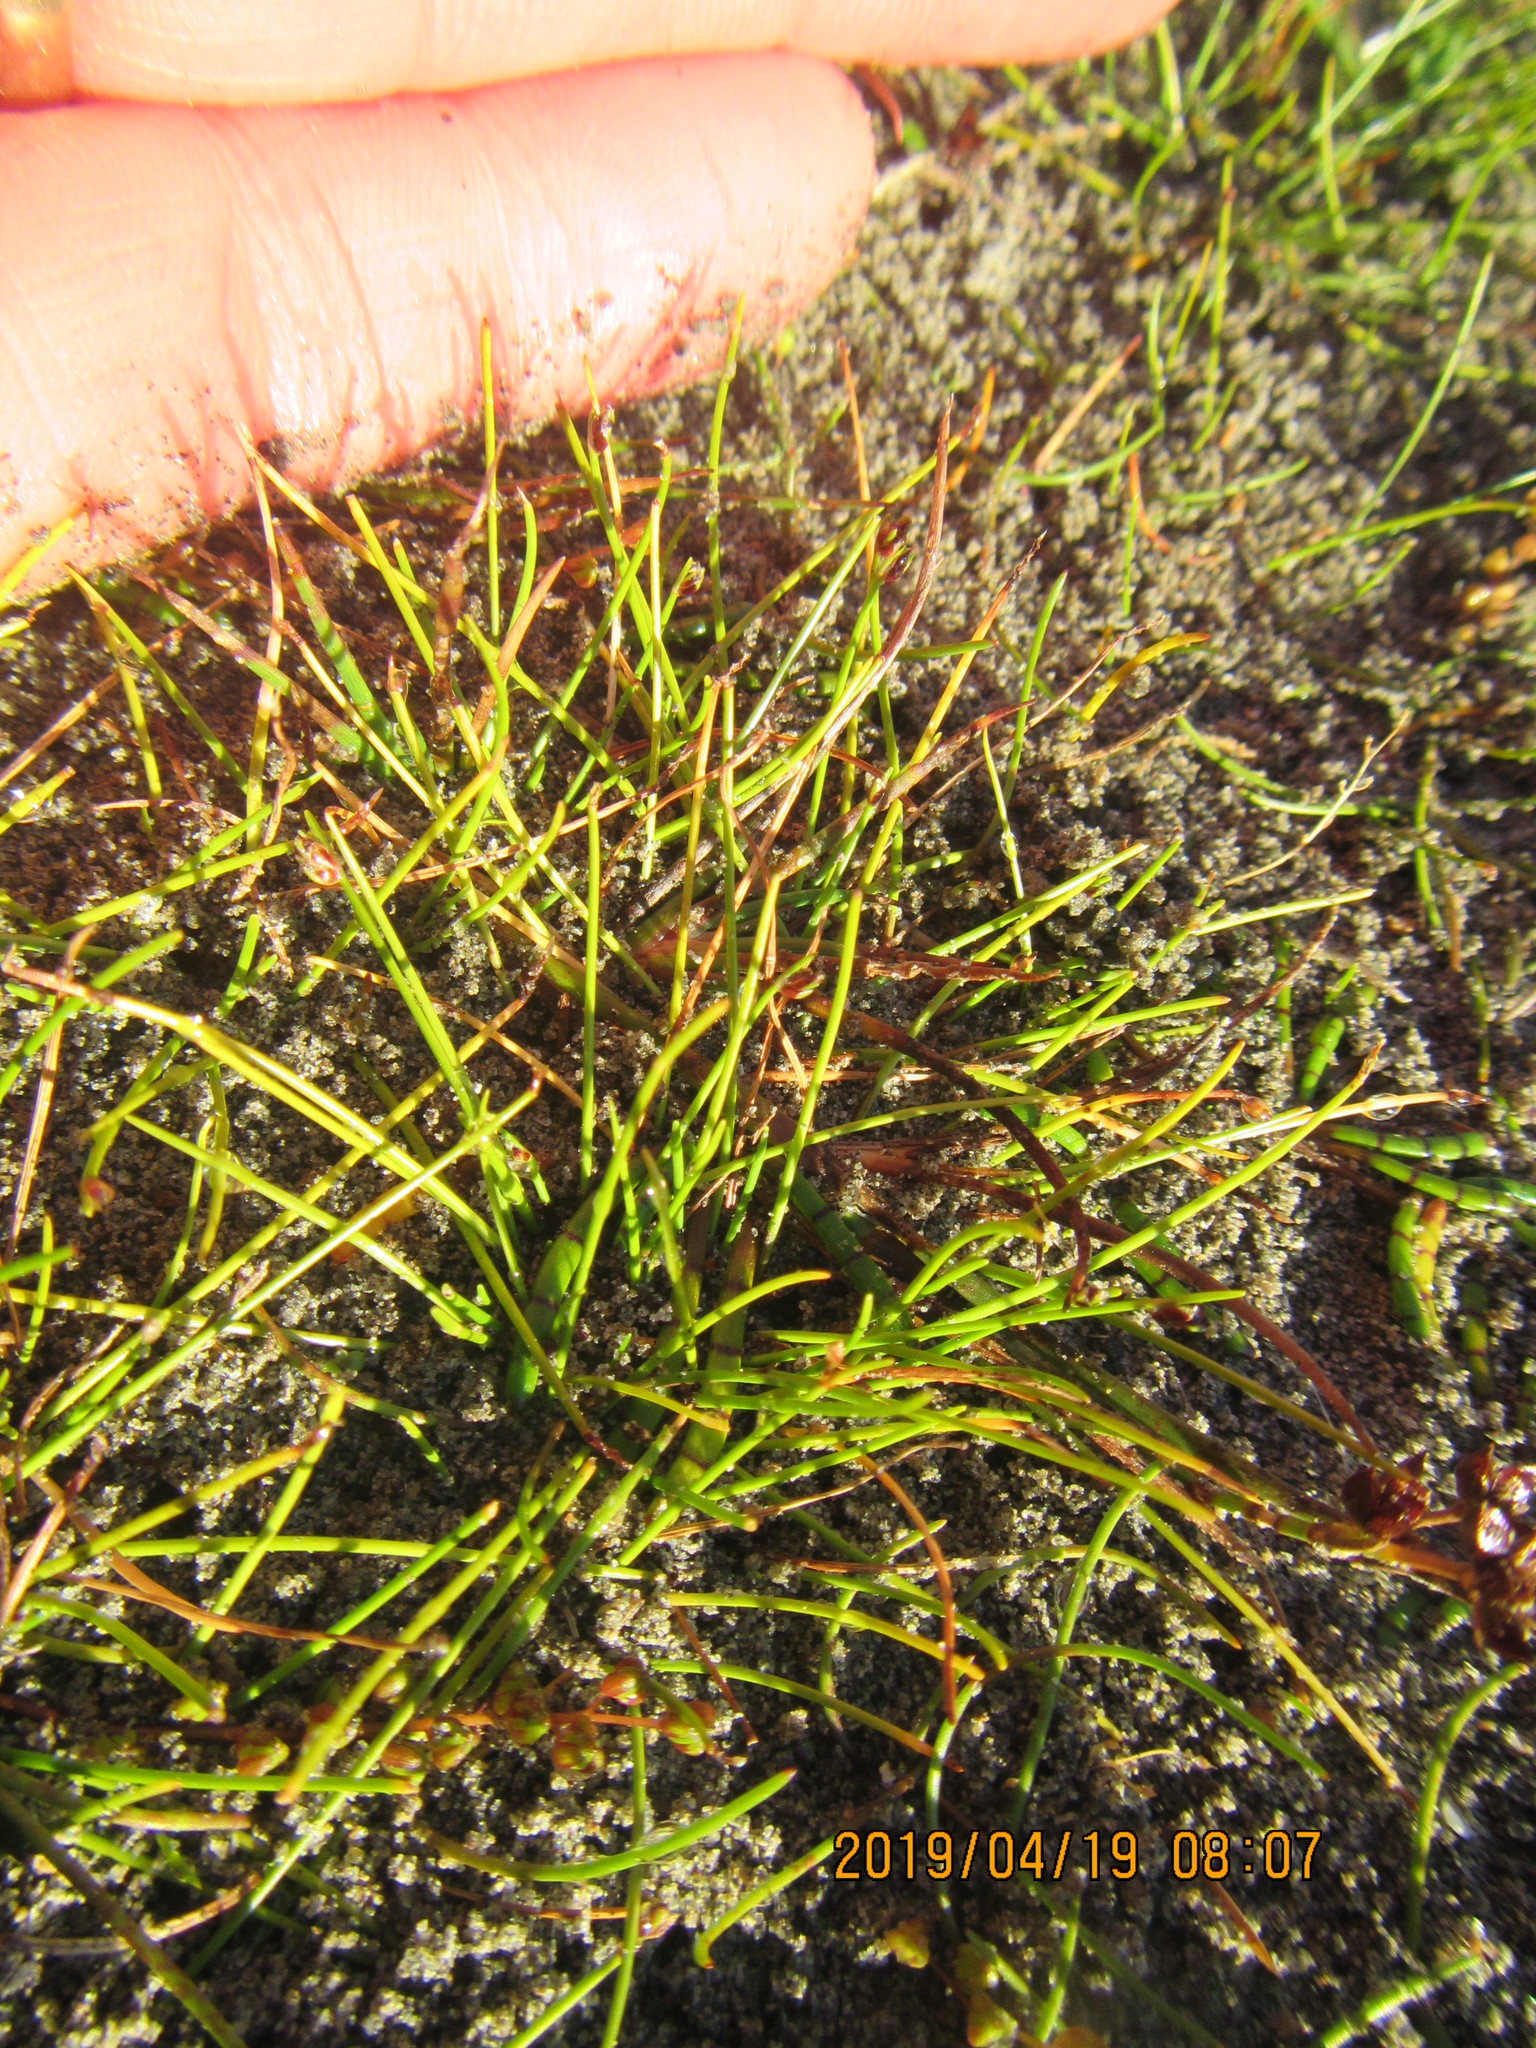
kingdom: Plantae
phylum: Tracheophyta
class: Liliopsida
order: Poales
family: Cyperaceae
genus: Isolepis
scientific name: Isolepis cernua
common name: Slender club-rush
